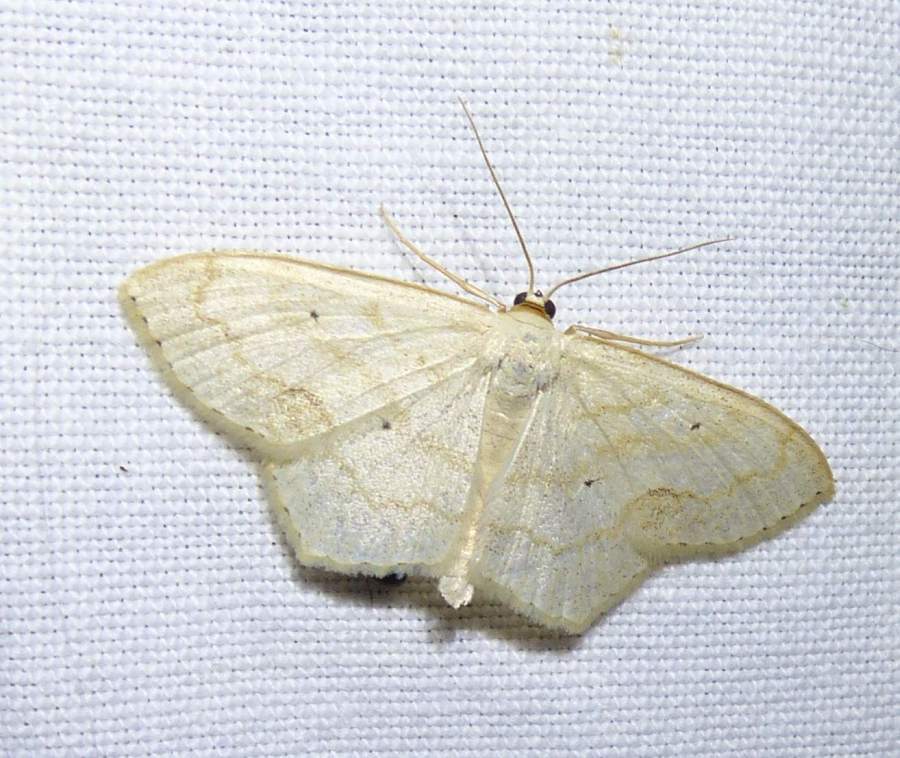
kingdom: Animalia
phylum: Arthropoda
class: Insecta
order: Lepidoptera
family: Geometridae
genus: Scopula
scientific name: Scopula limboundata
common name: Large lace border
